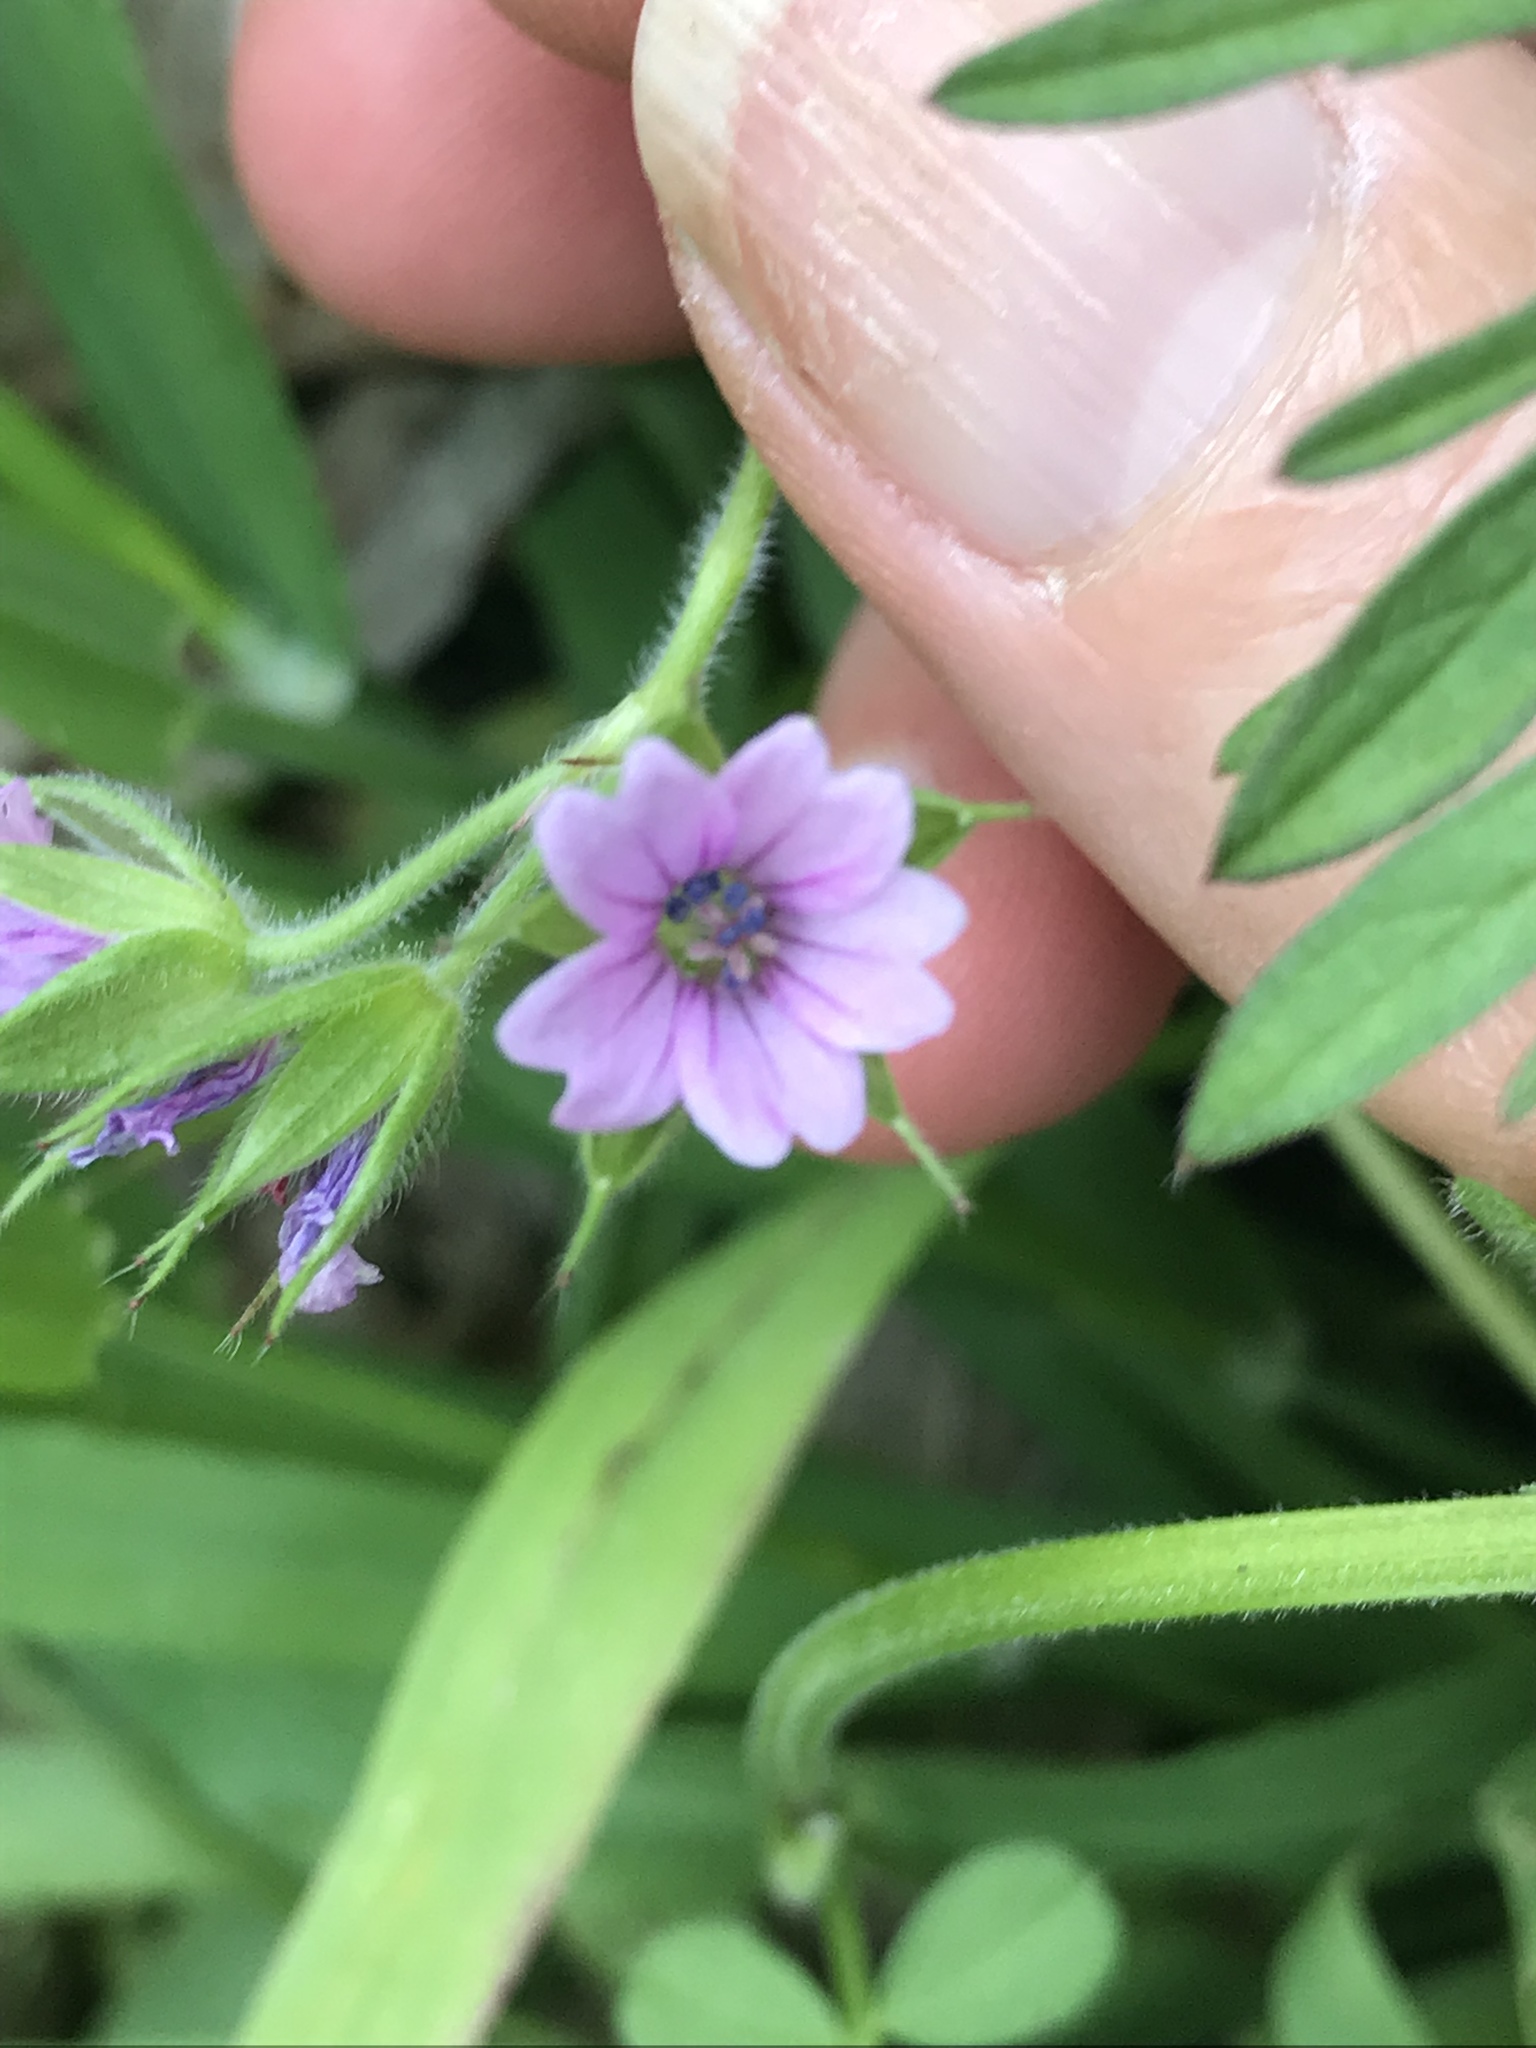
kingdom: Plantae
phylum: Tracheophyta
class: Magnoliopsida
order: Geraniales
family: Geraniaceae
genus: Geranium
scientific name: Geranium dissectum
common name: Cut-leaved crane's-bill
